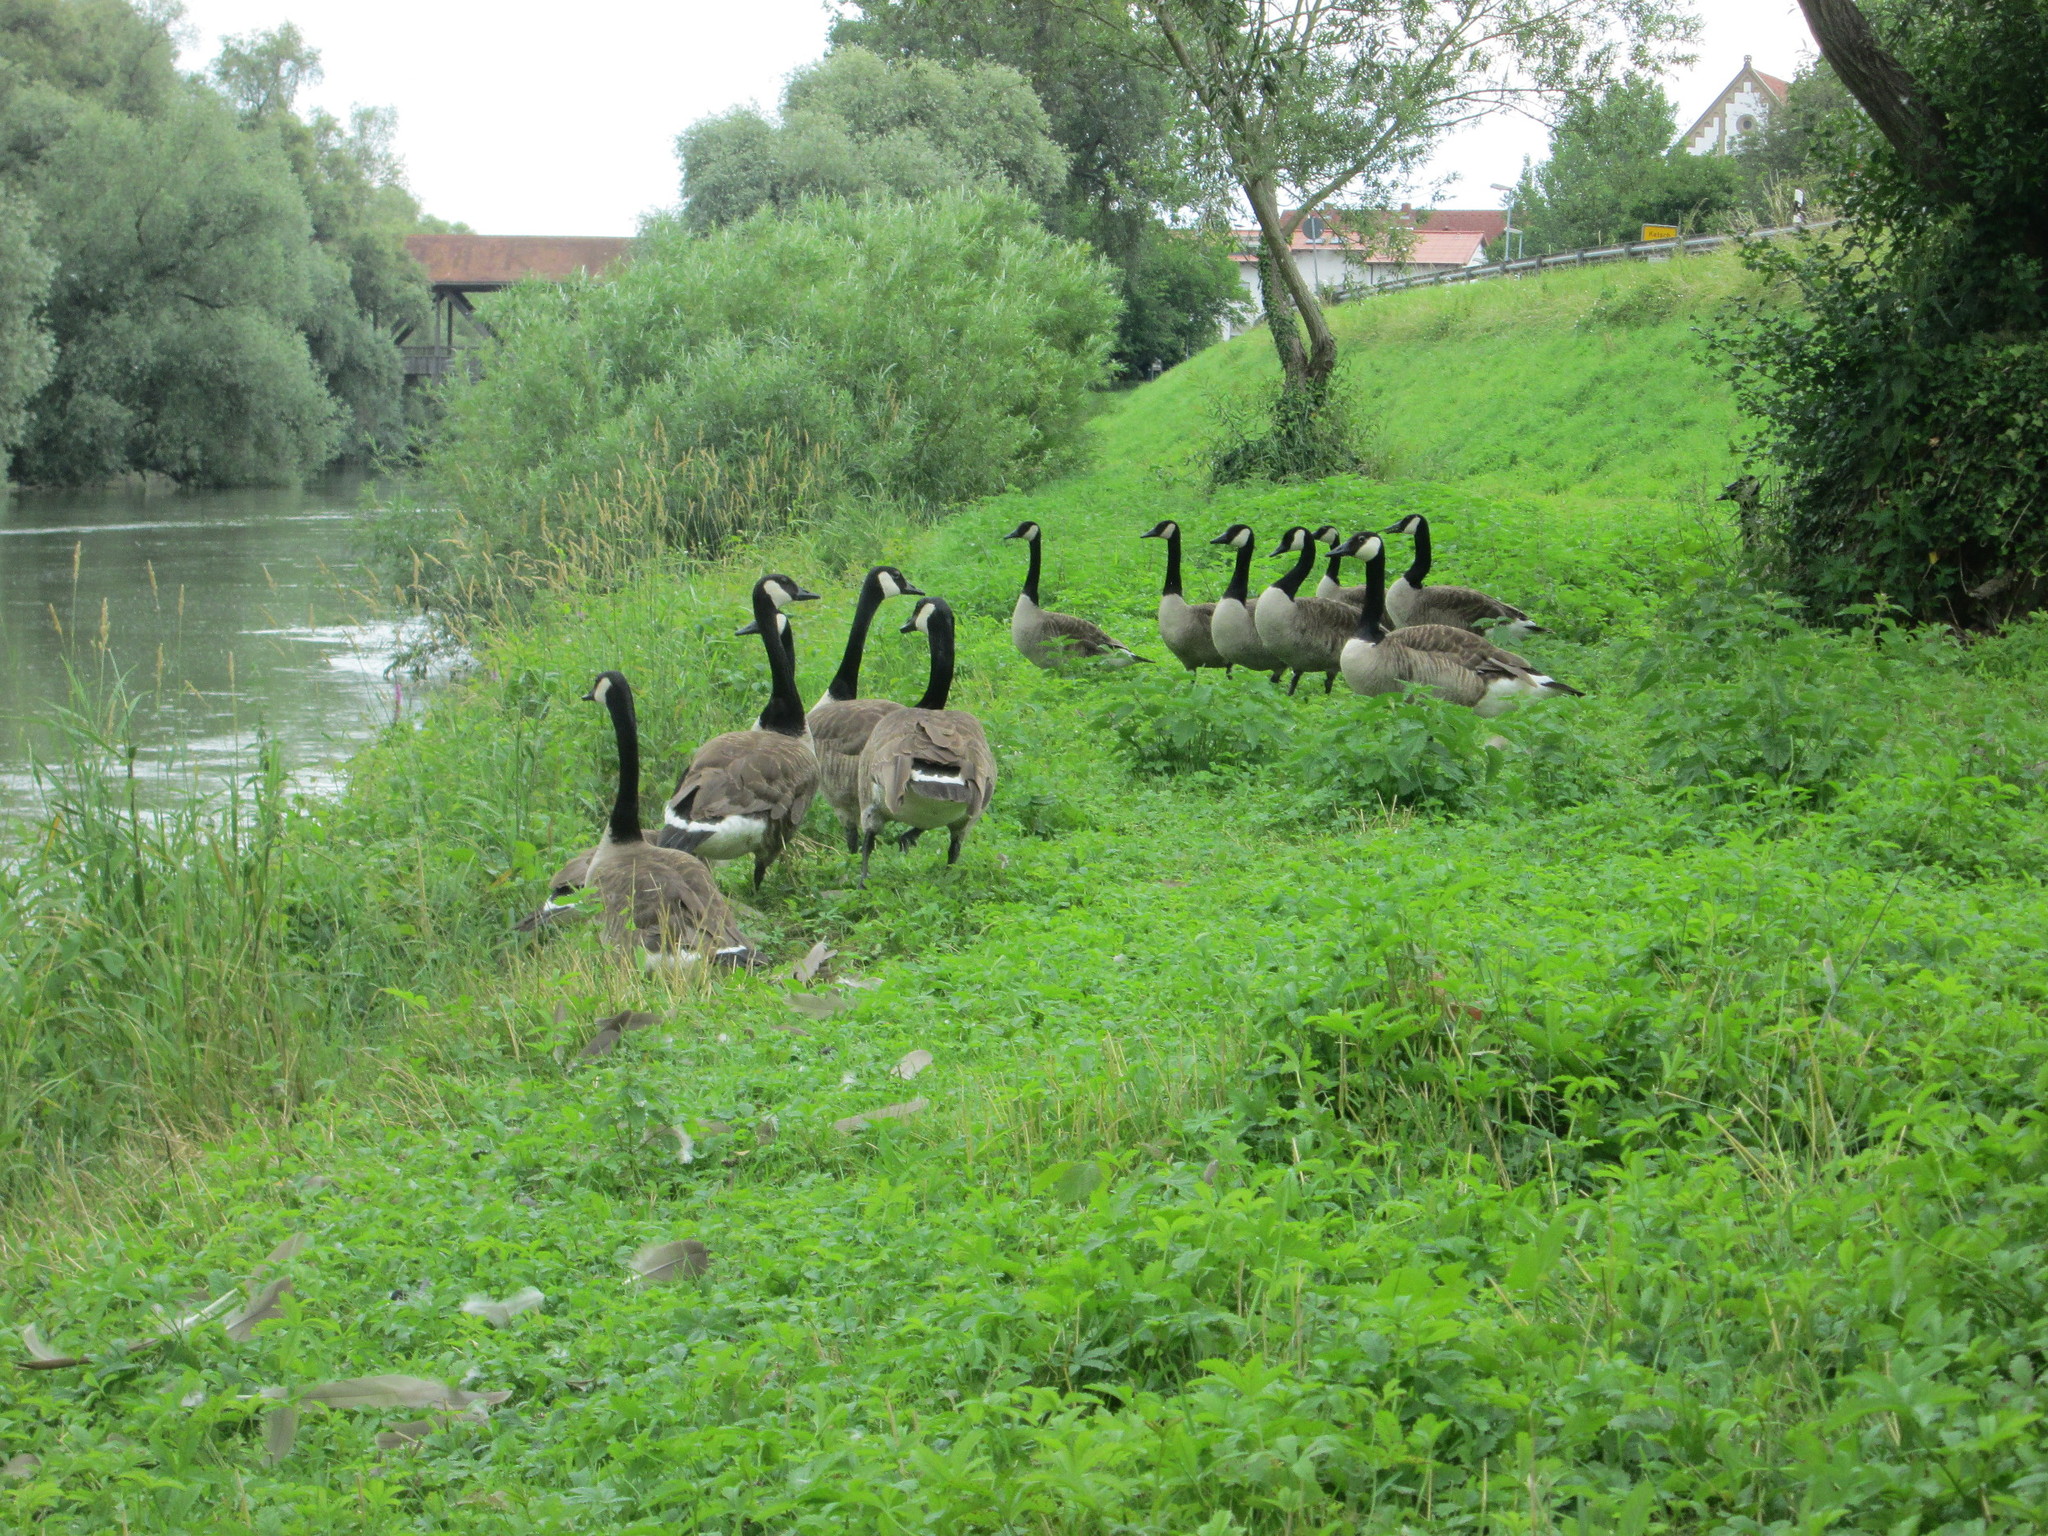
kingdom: Animalia
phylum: Chordata
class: Aves
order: Anseriformes
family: Anatidae
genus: Branta
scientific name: Branta canadensis
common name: Canada goose
